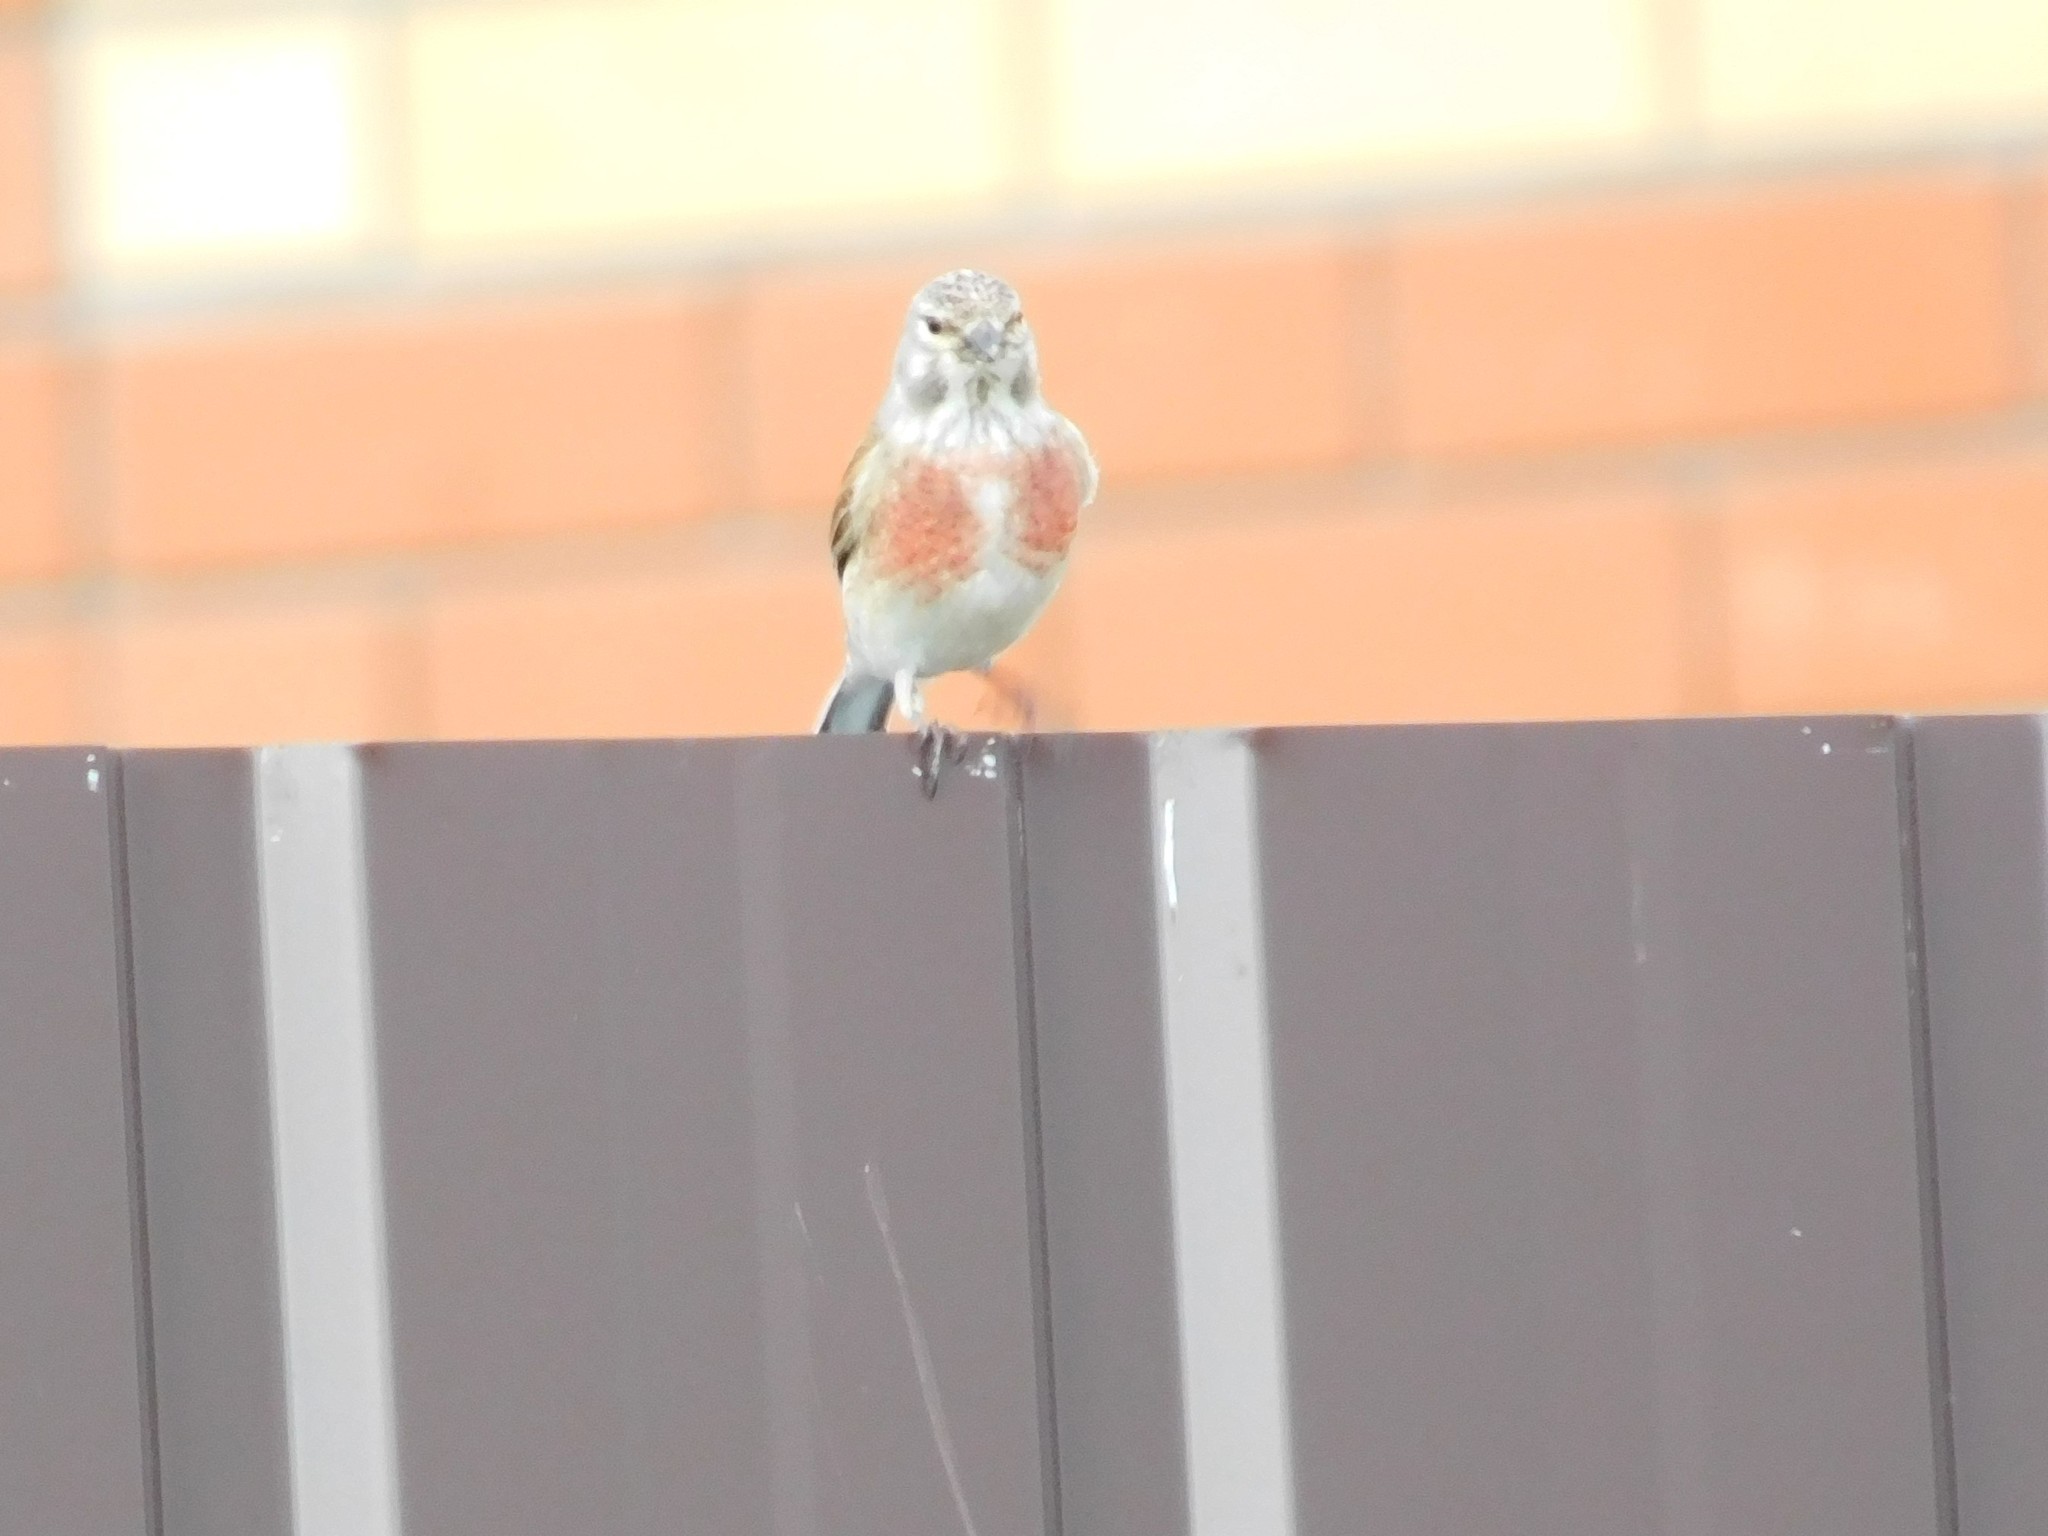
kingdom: Animalia
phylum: Chordata
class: Aves
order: Passeriformes
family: Fringillidae
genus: Linaria
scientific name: Linaria cannabina
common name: Common linnet
